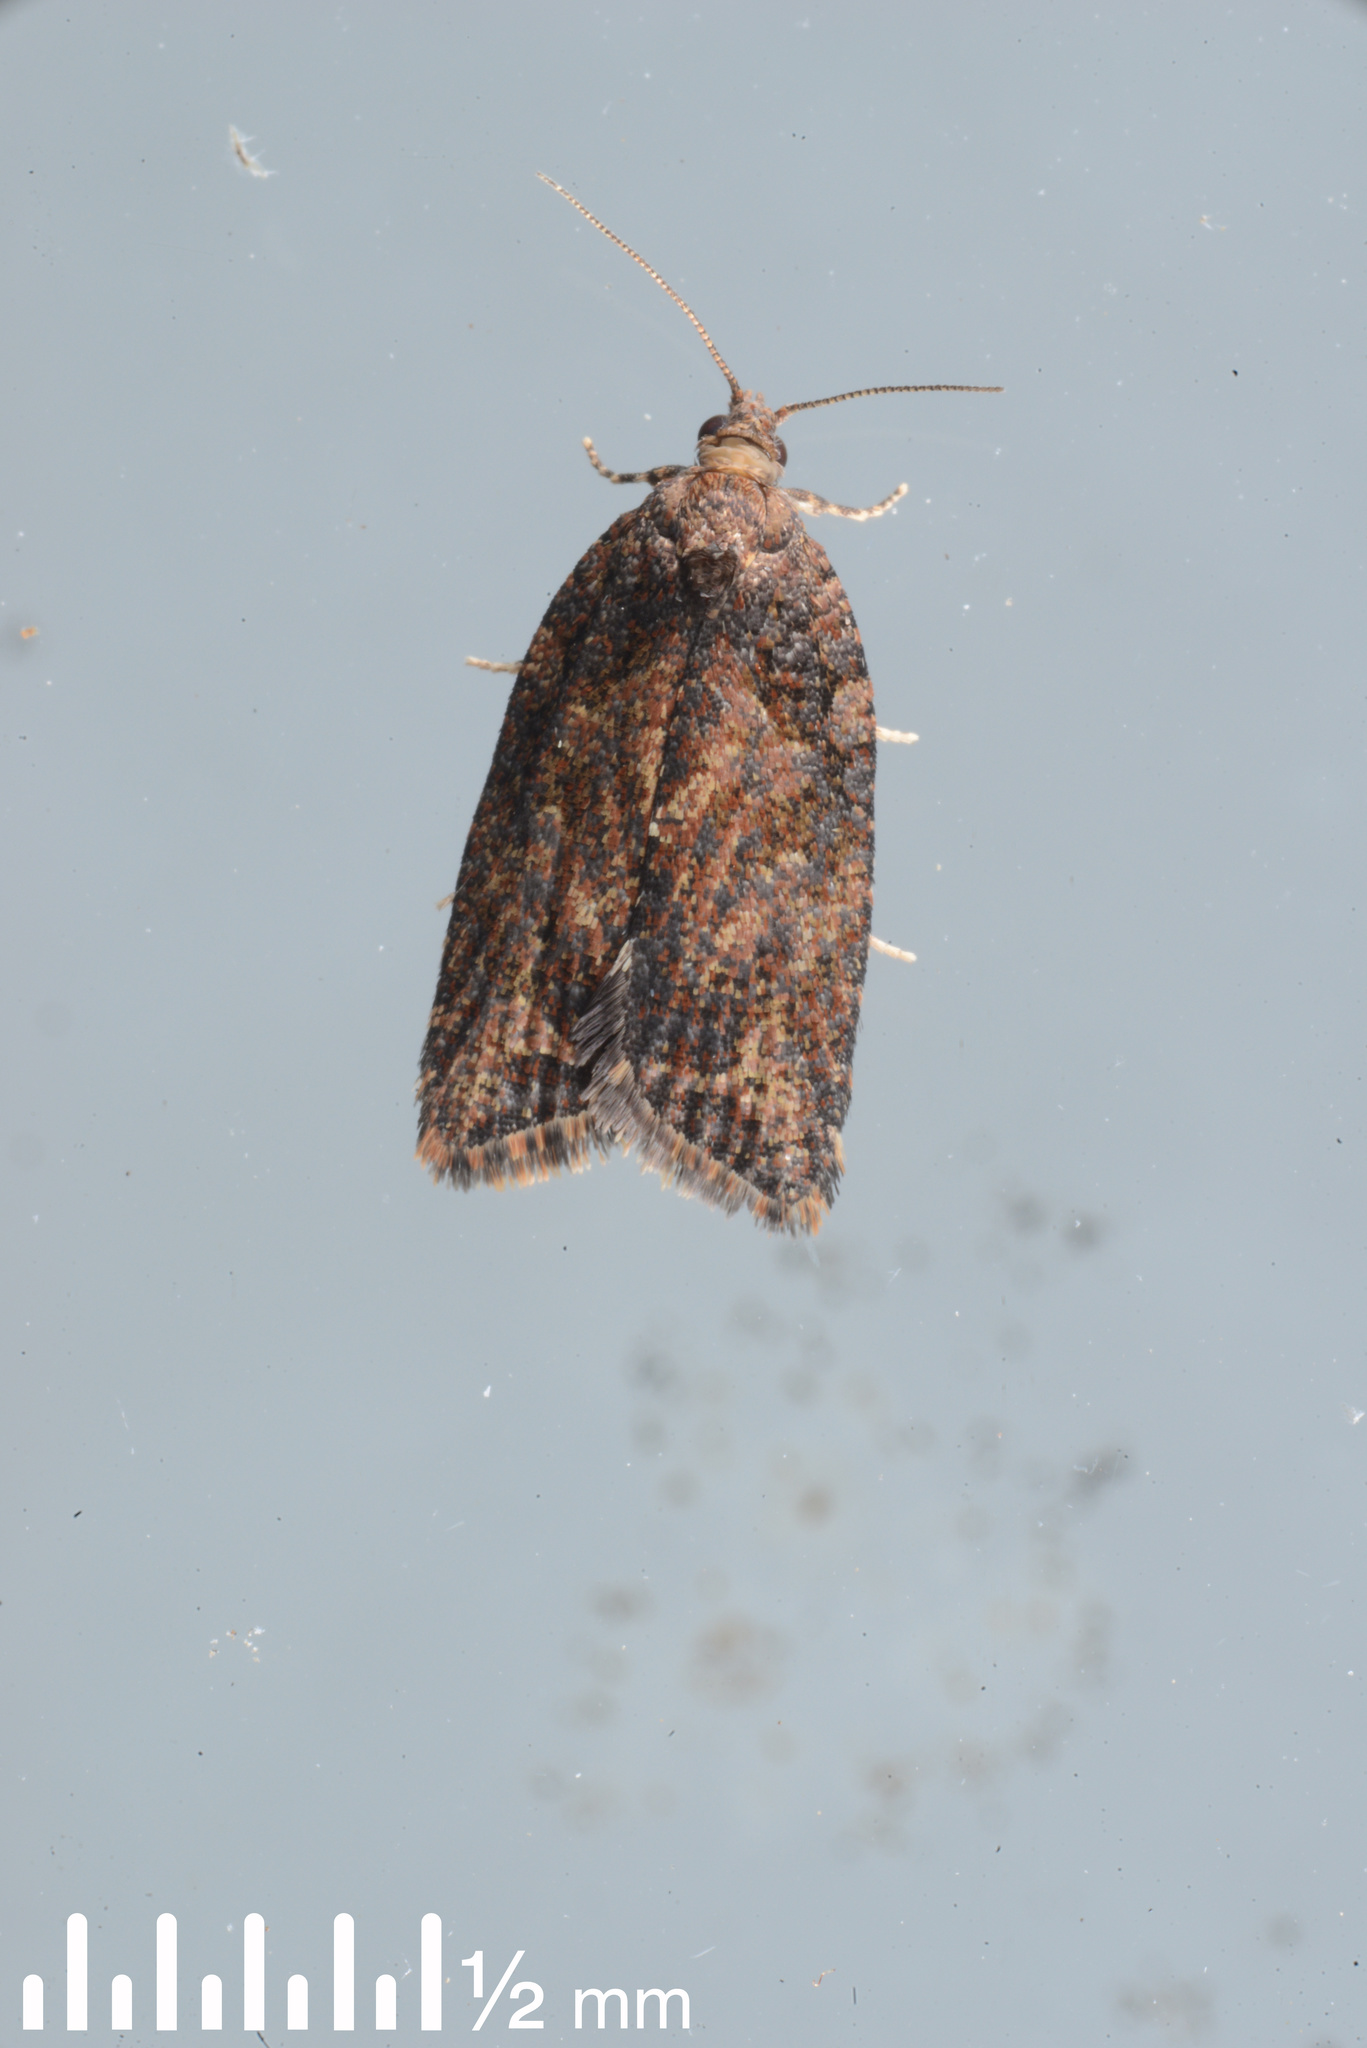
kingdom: Animalia
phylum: Arthropoda
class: Insecta
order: Lepidoptera
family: Tortricidae
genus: Capua
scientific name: Capua intractana
